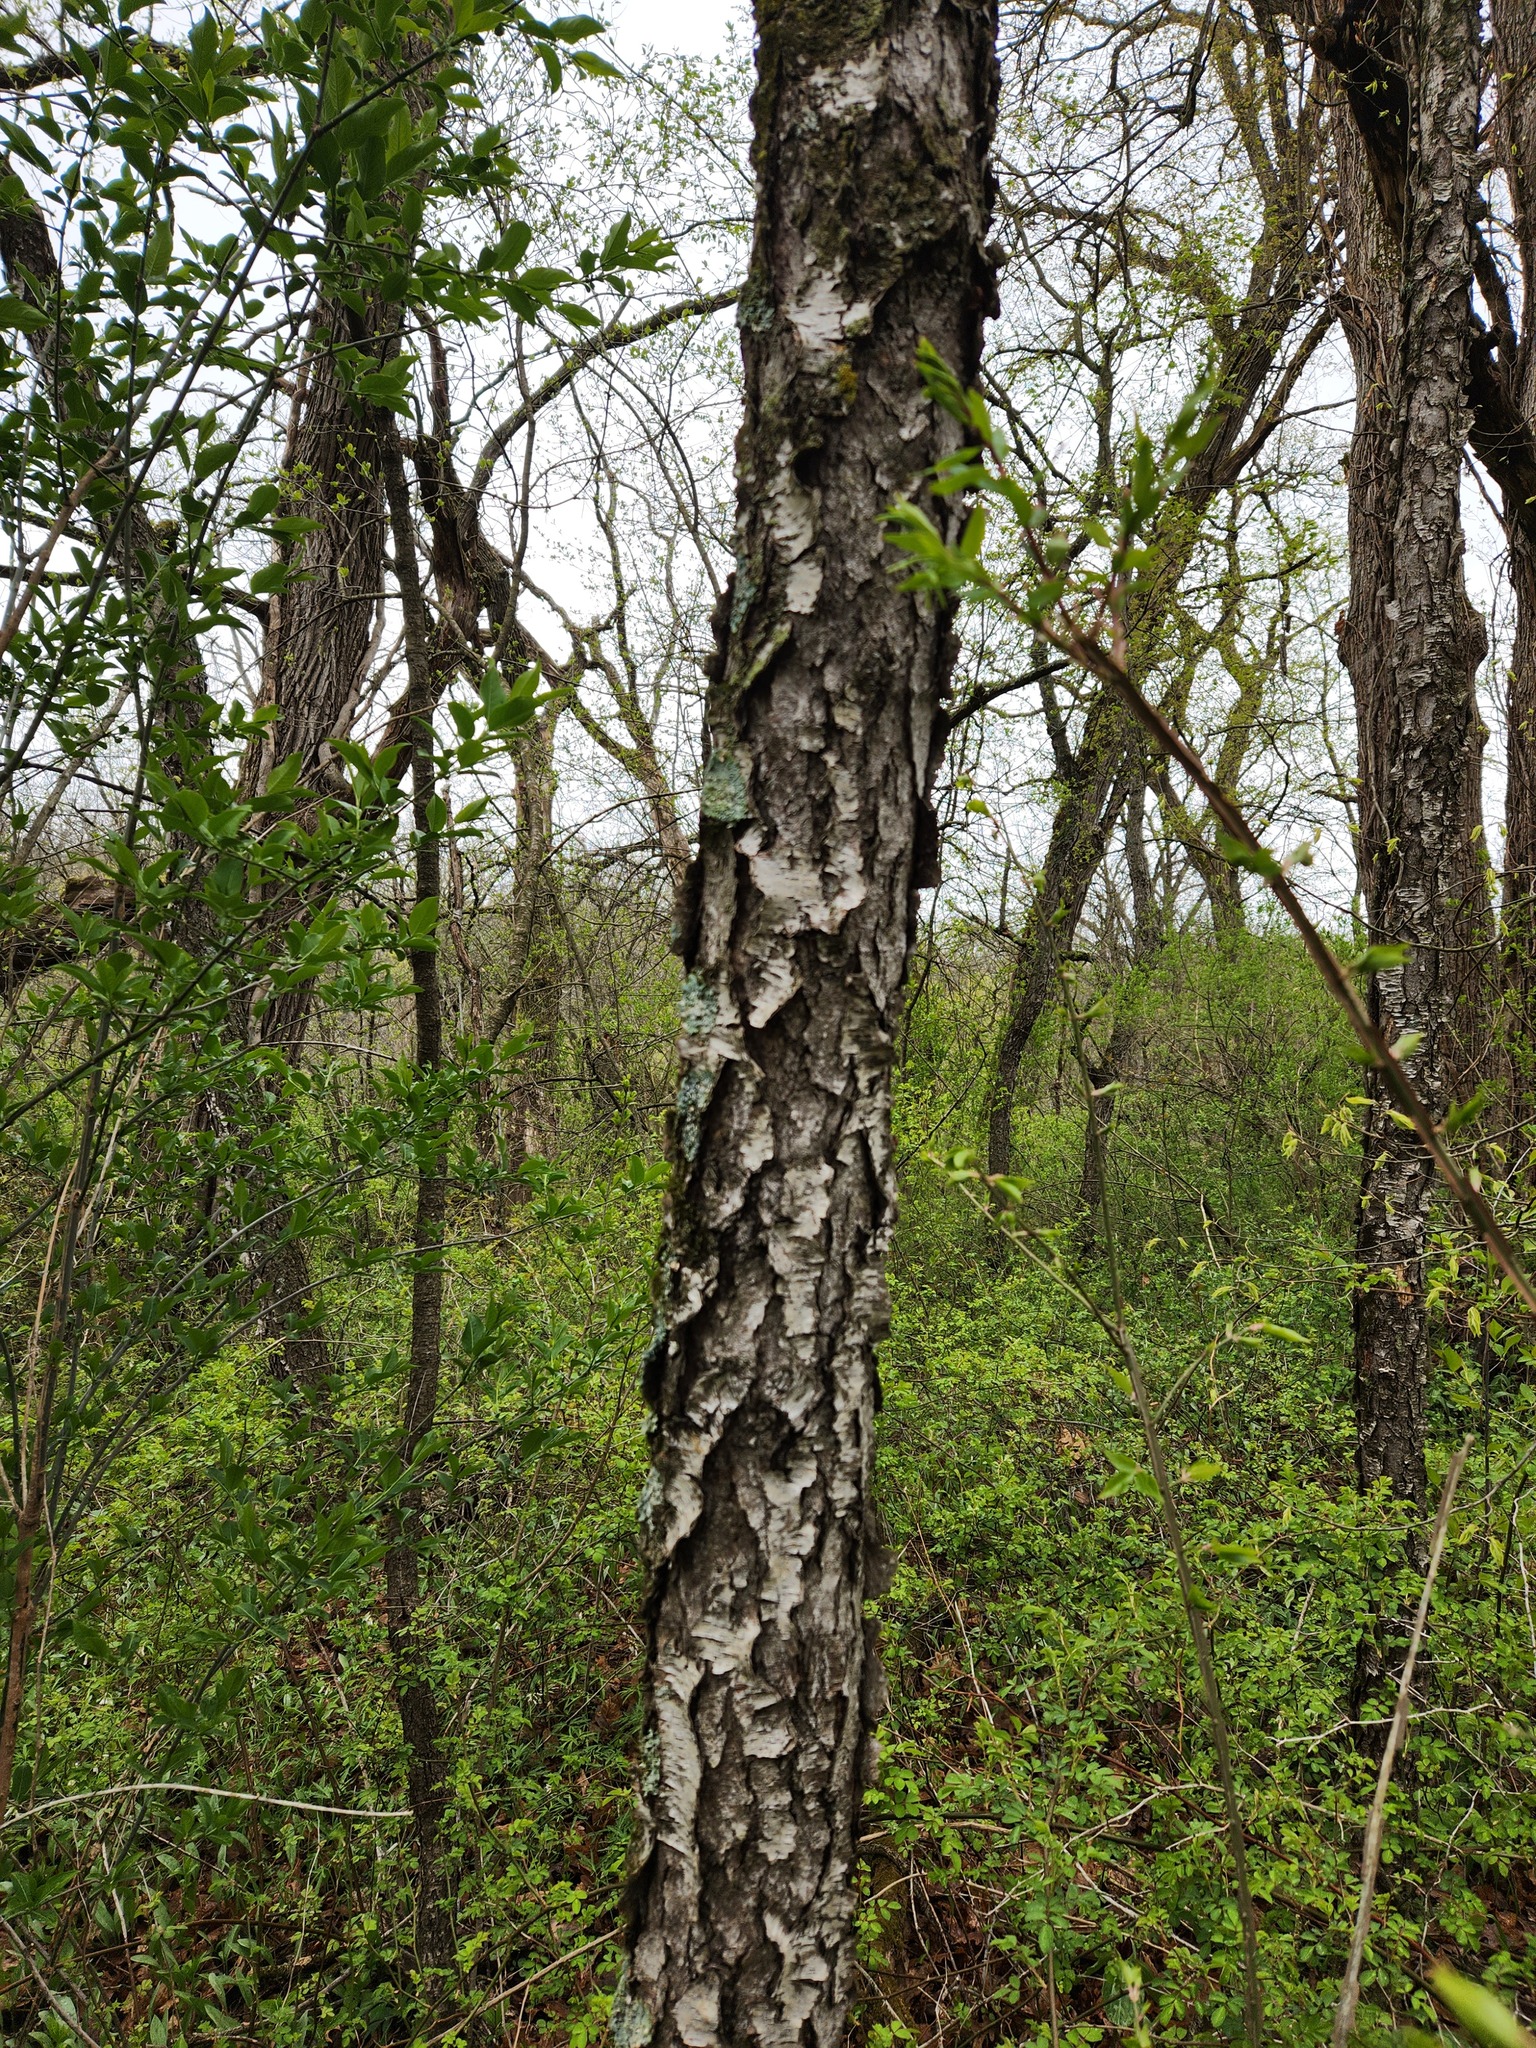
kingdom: Plantae
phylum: Tracheophyta
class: Magnoliopsida
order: Rosales
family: Rosaceae
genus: Prunus
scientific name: Prunus serotina
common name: Black cherry
